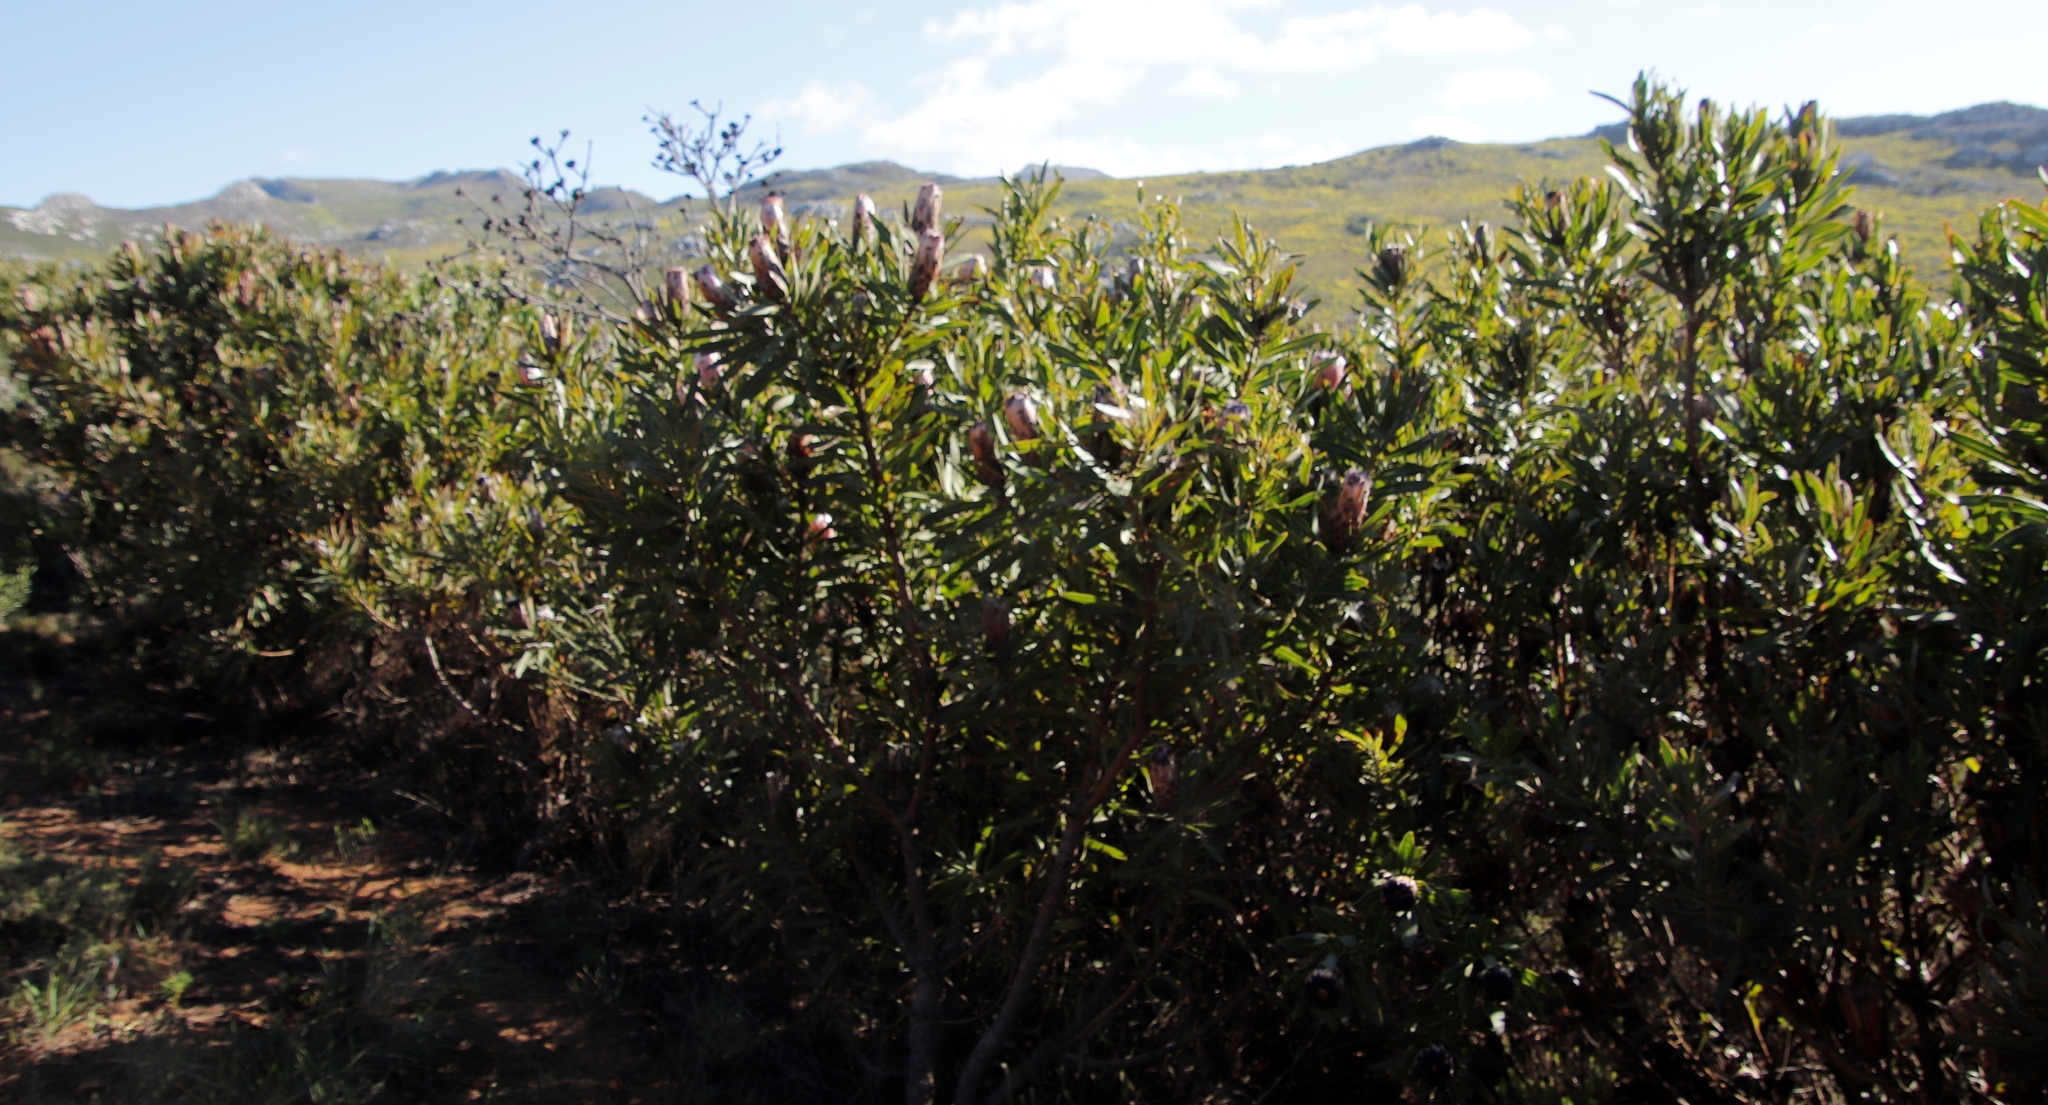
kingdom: Plantae
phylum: Tracheophyta
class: Magnoliopsida
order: Proteales
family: Proteaceae
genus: Protea
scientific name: Protea
